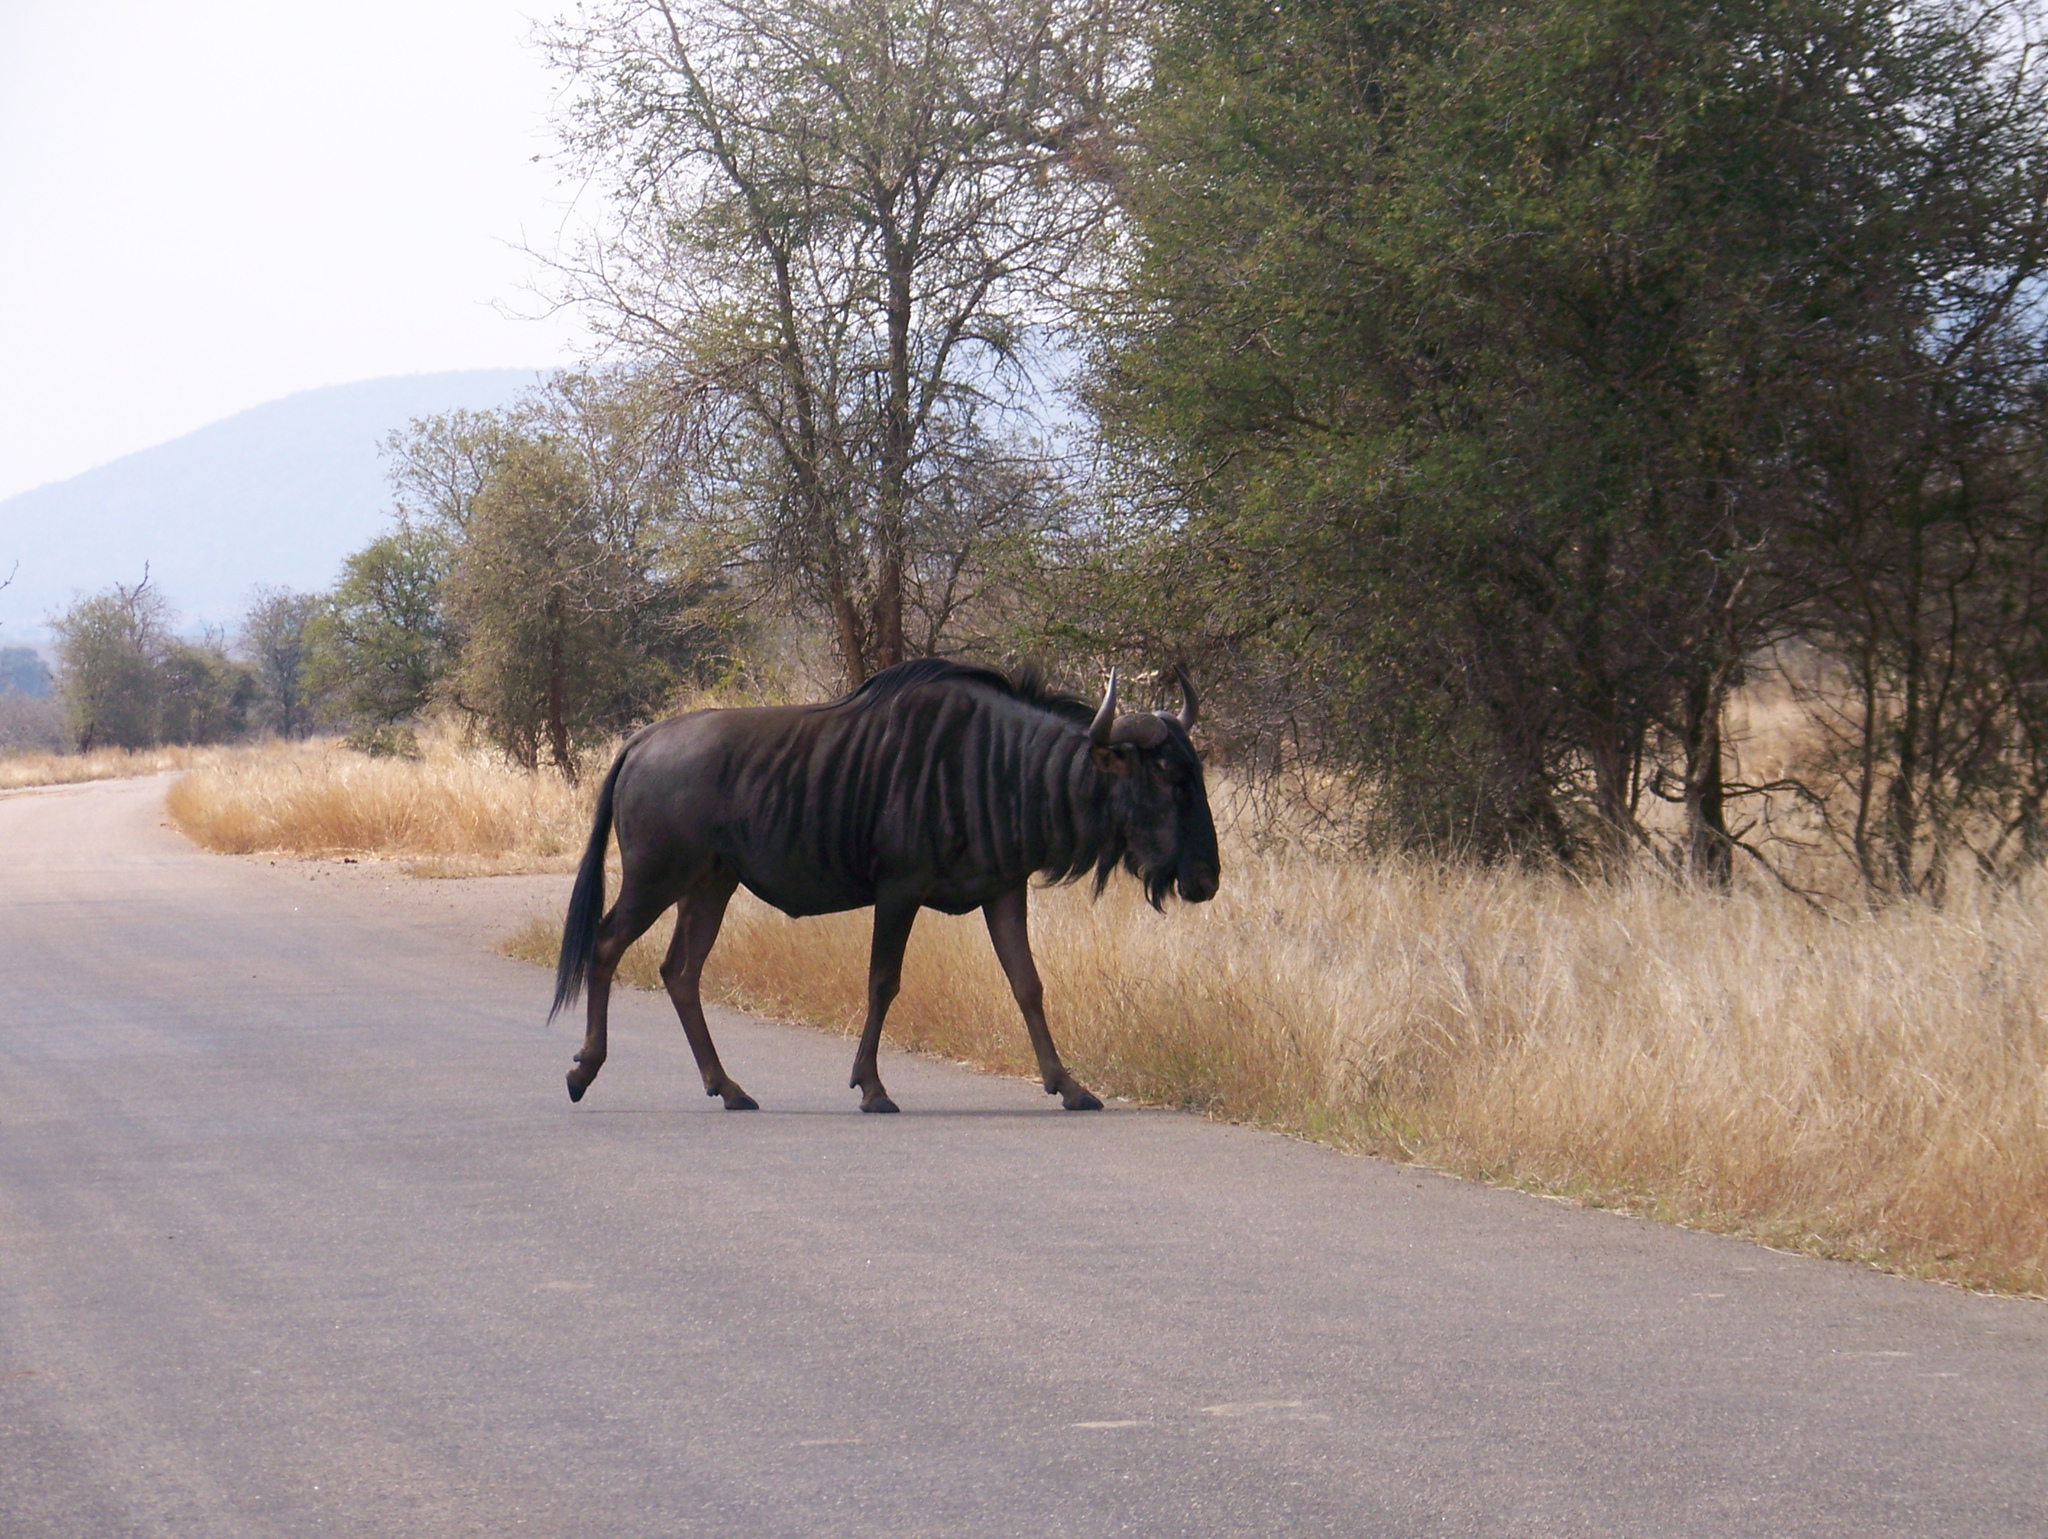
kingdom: Animalia
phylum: Chordata
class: Mammalia
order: Artiodactyla
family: Bovidae
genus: Connochaetes
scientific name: Connochaetes taurinus
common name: Blue wildebeest
